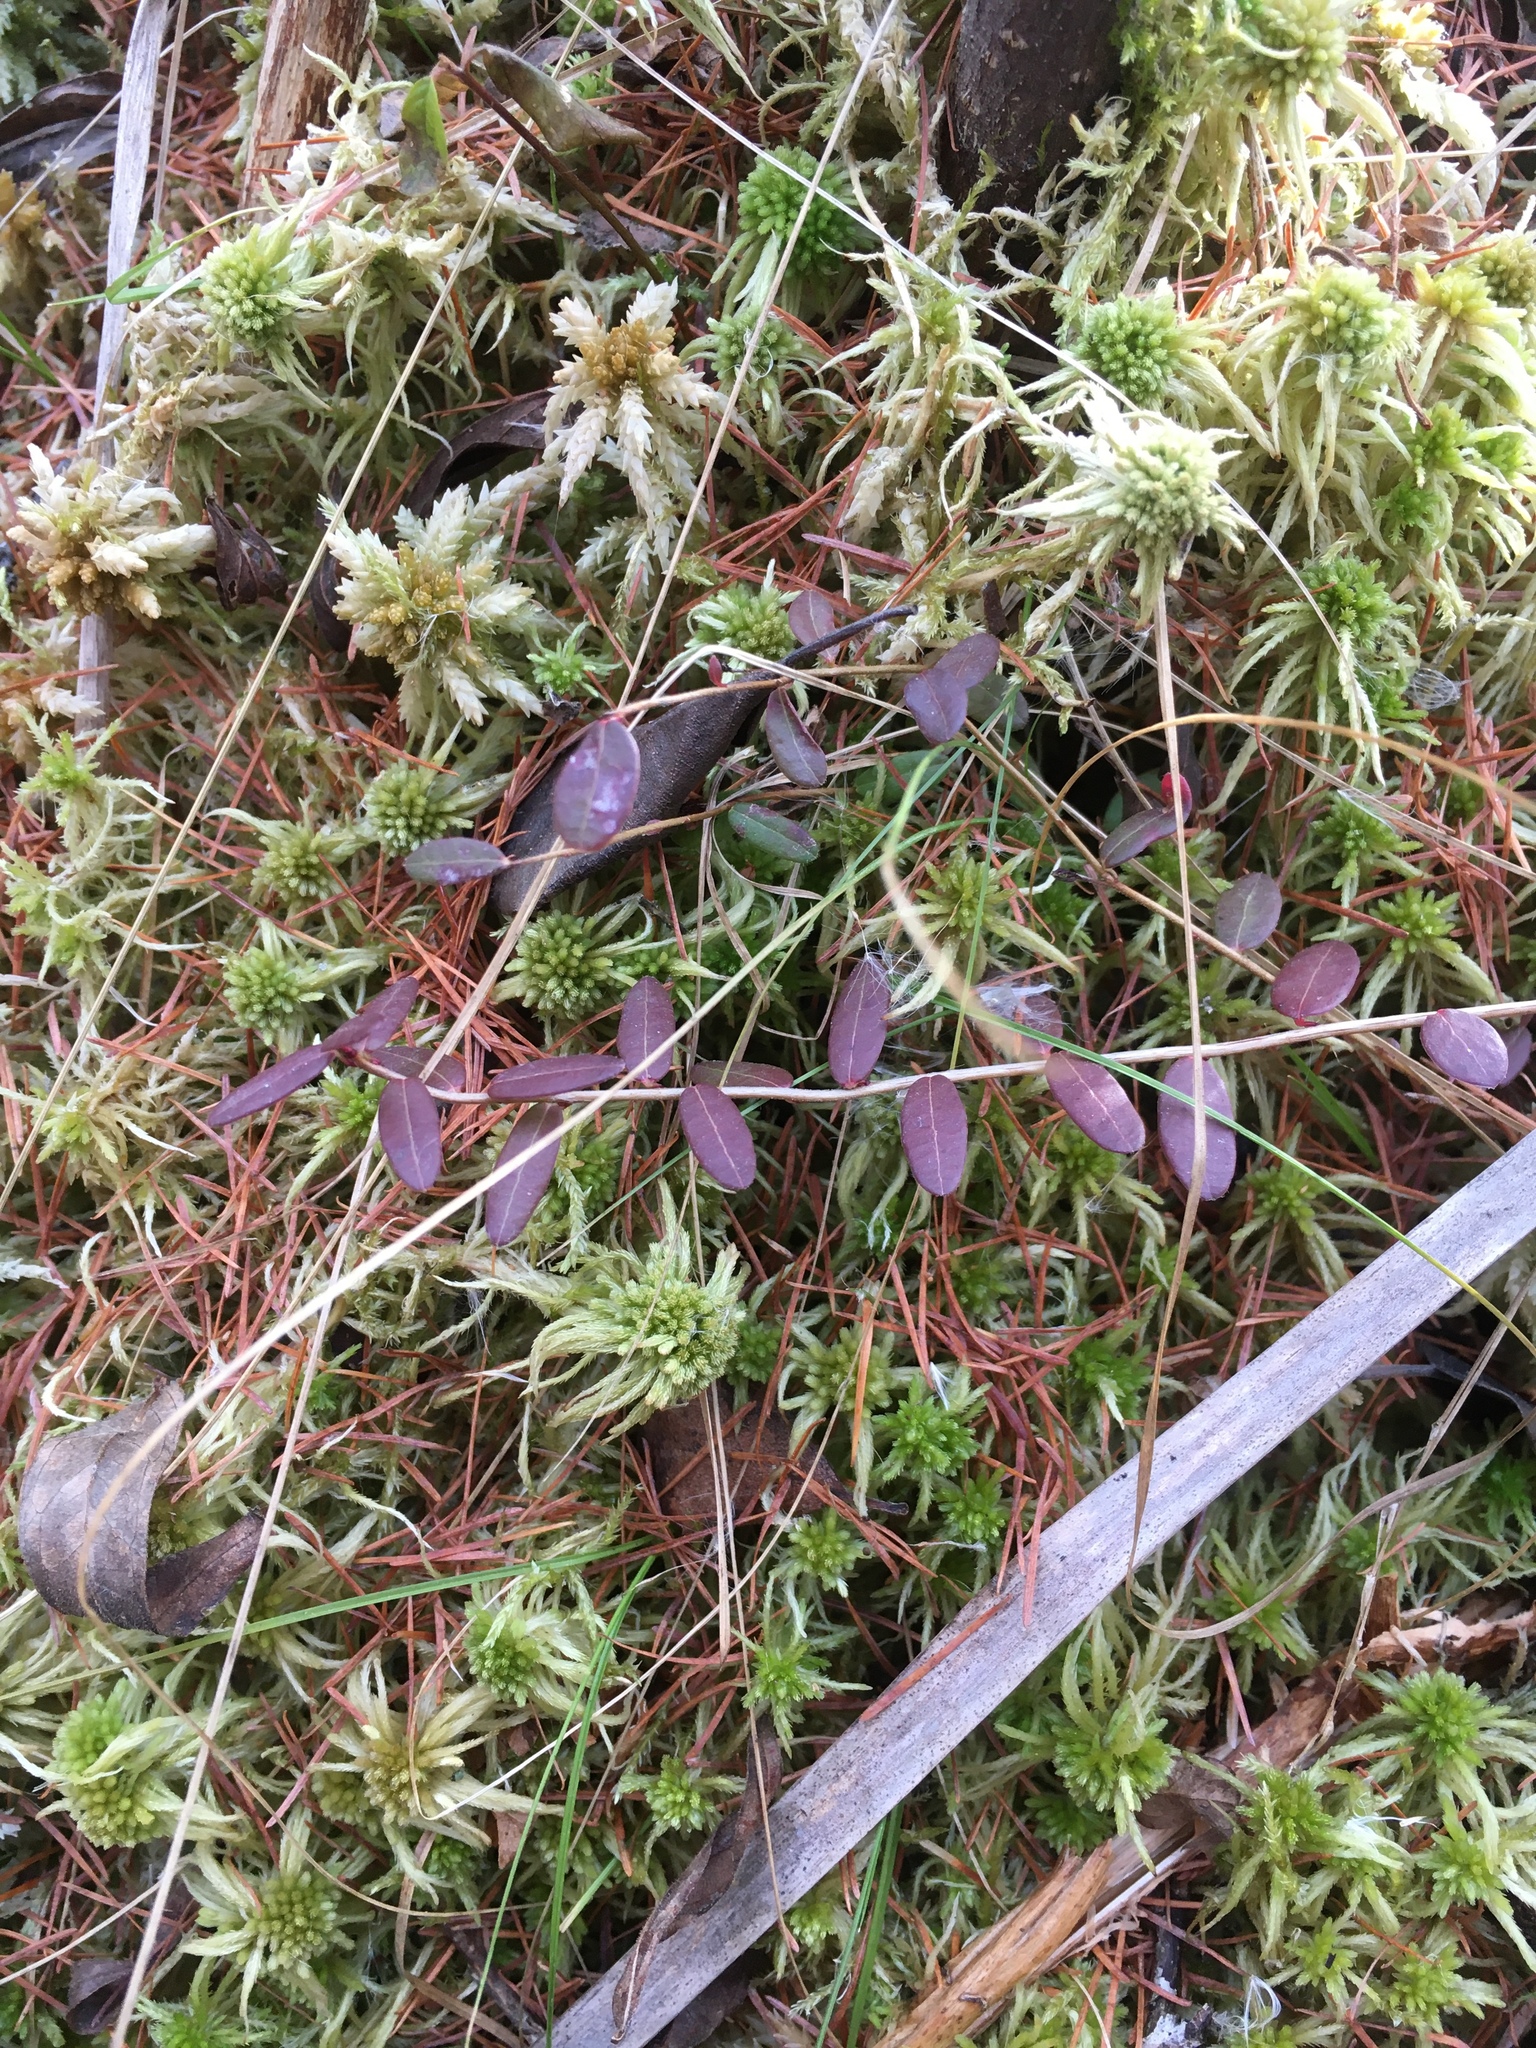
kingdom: Plantae
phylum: Tracheophyta
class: Magnoliopsida
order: Ericales
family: Ericaceae
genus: Vaccinium
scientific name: Vaccinium macrocarpon
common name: American cranberry
